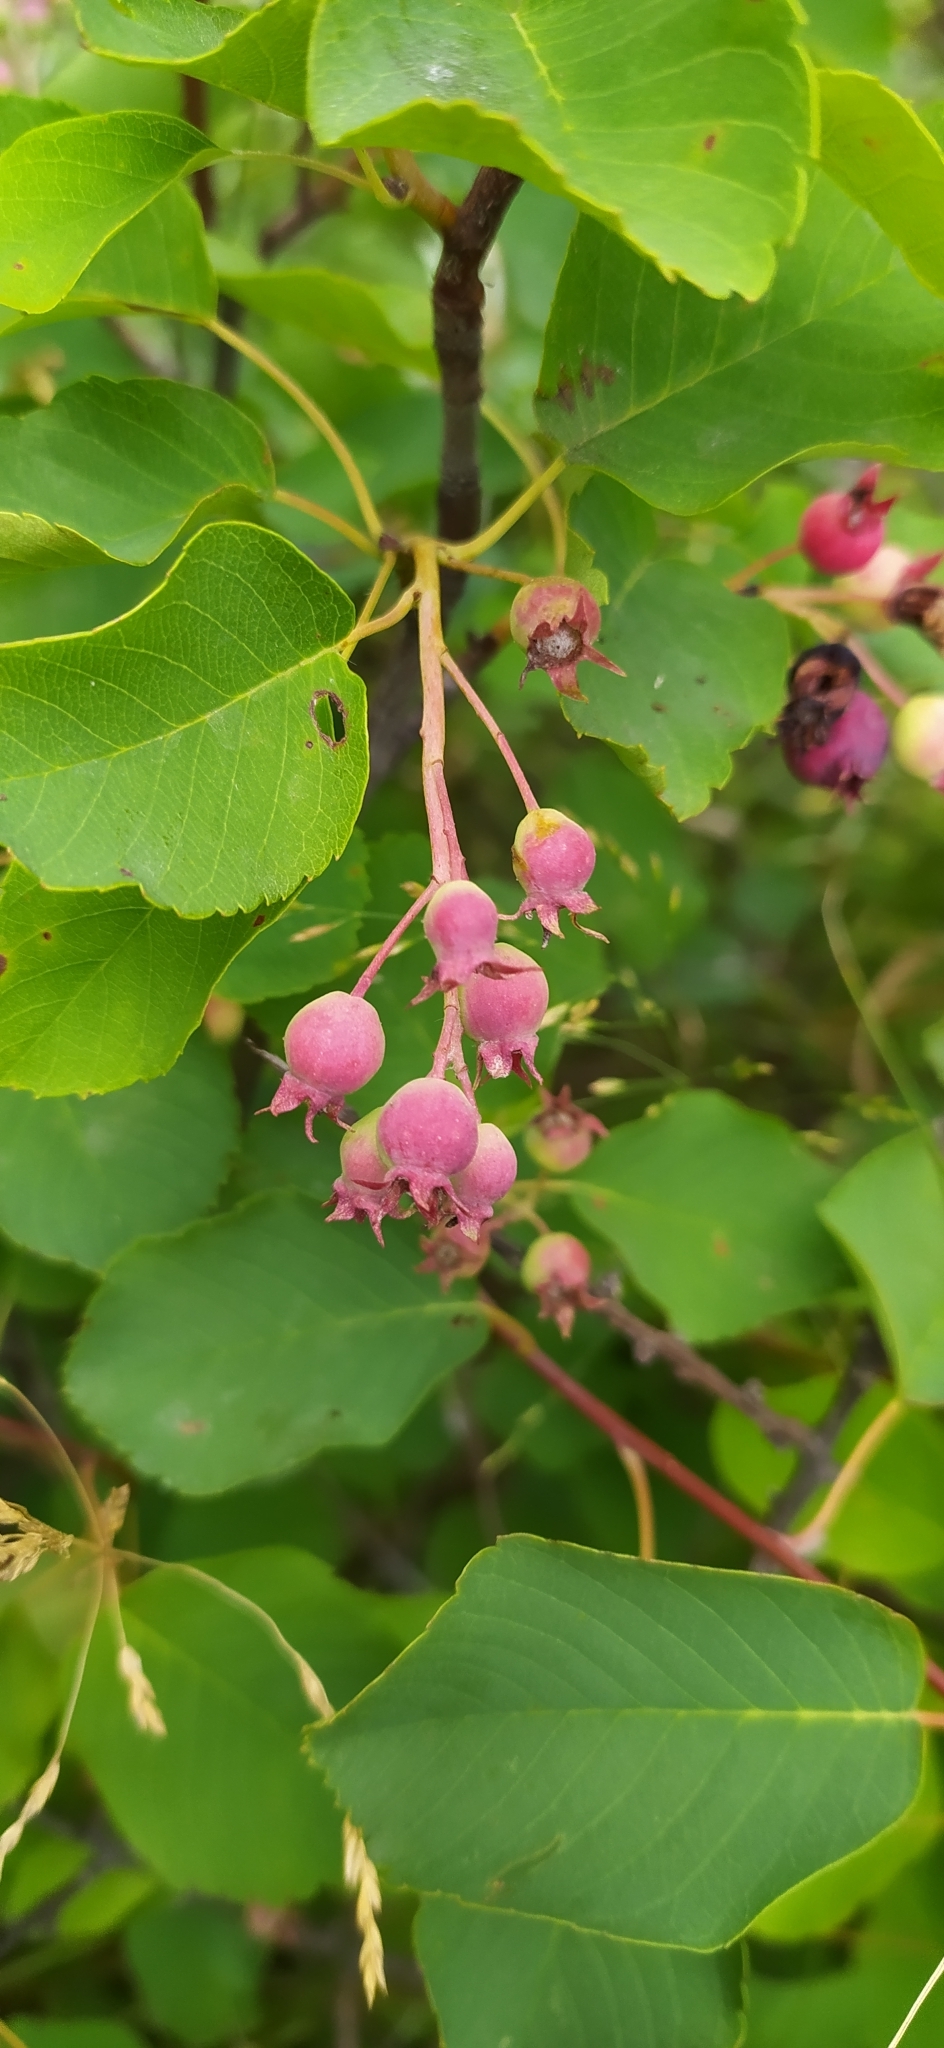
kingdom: Plantae
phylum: Tracheophyta
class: Magnoliopsida
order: Rosales
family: Rosaceae
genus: Amelanchier
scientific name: Amelanchier alnifolia
